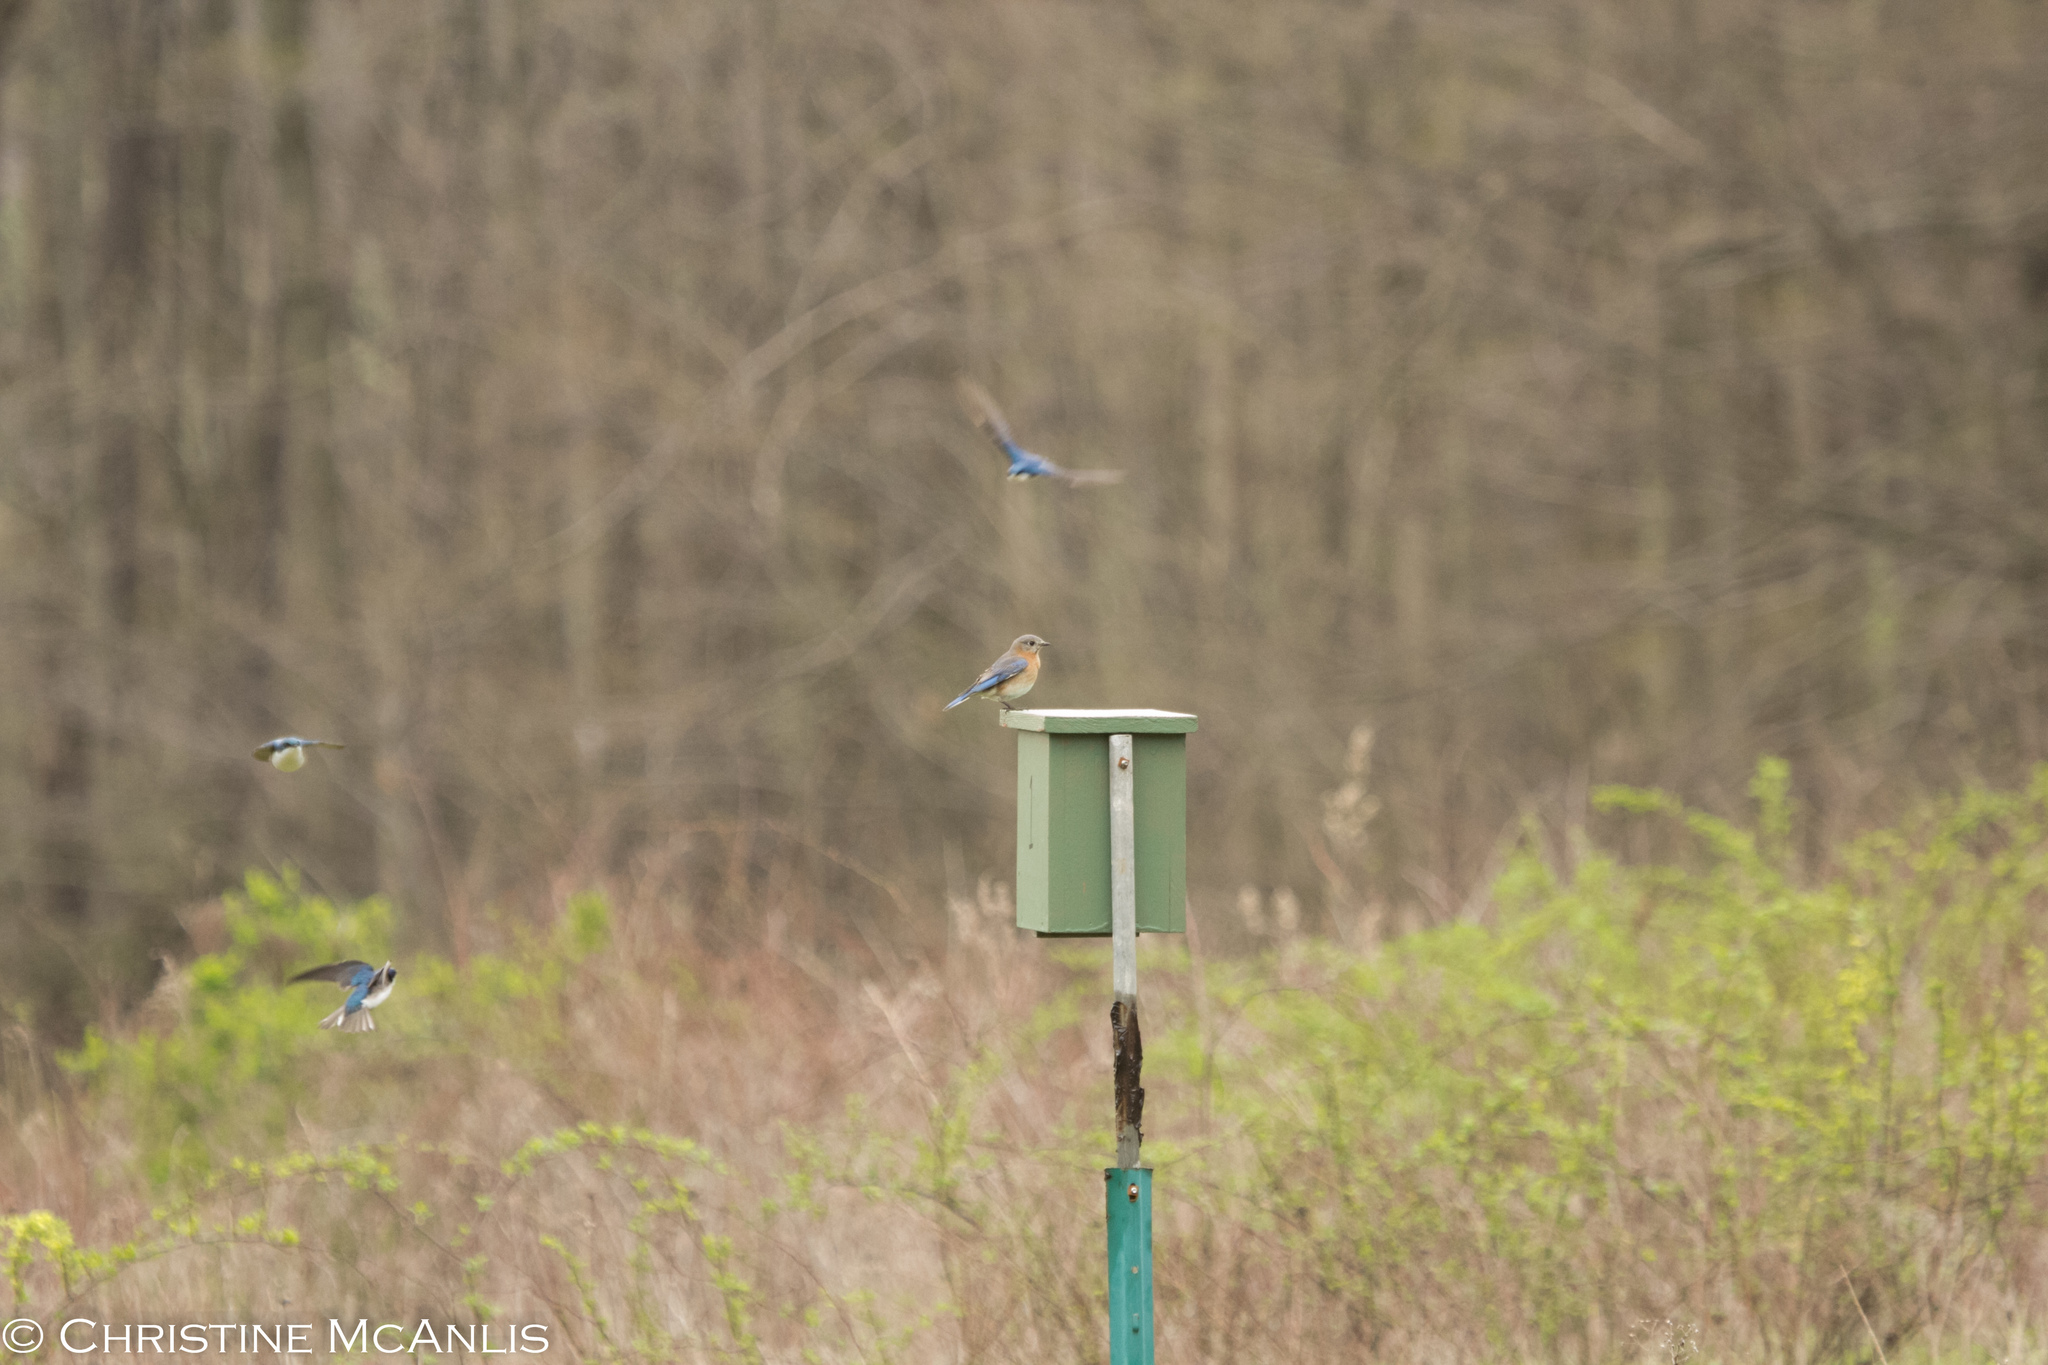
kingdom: Animalia
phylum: Chordata
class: Aves
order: Passeriformes
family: Turdidae
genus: Sialia
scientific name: Sialia sialis
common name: Eastern bluebird
